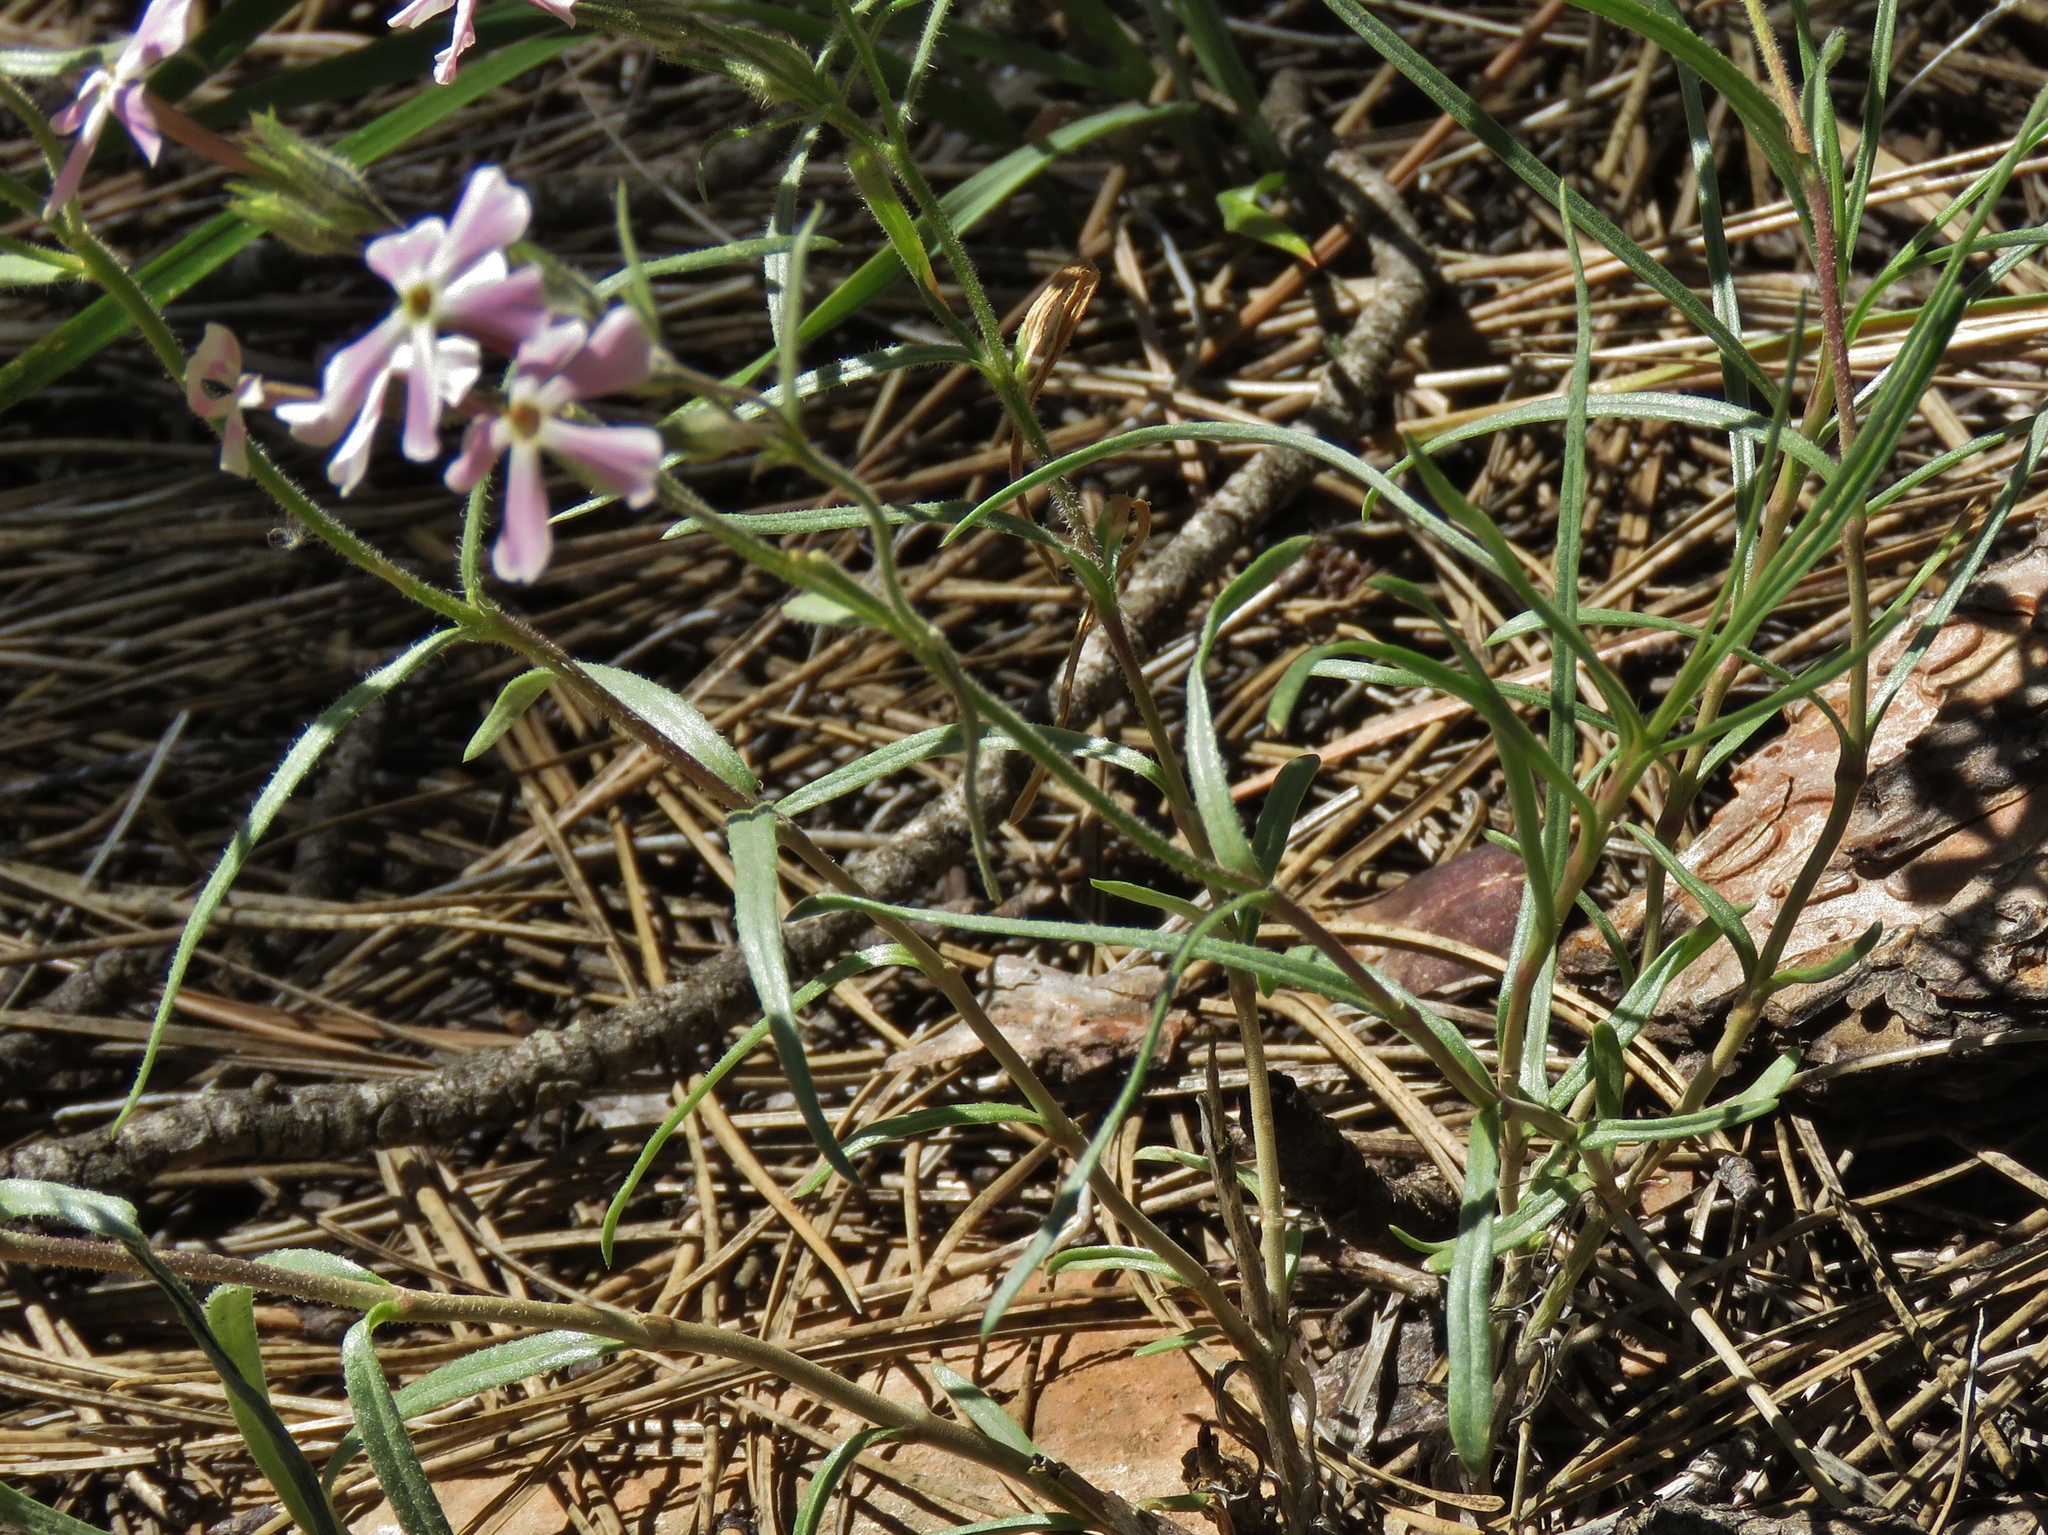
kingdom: Plantae
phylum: Tracheophyta
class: Magnoliopsida
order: Ericales
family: Polemoniaceae
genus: Phlox
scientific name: Phlox longifolia
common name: Longleaf phlox
